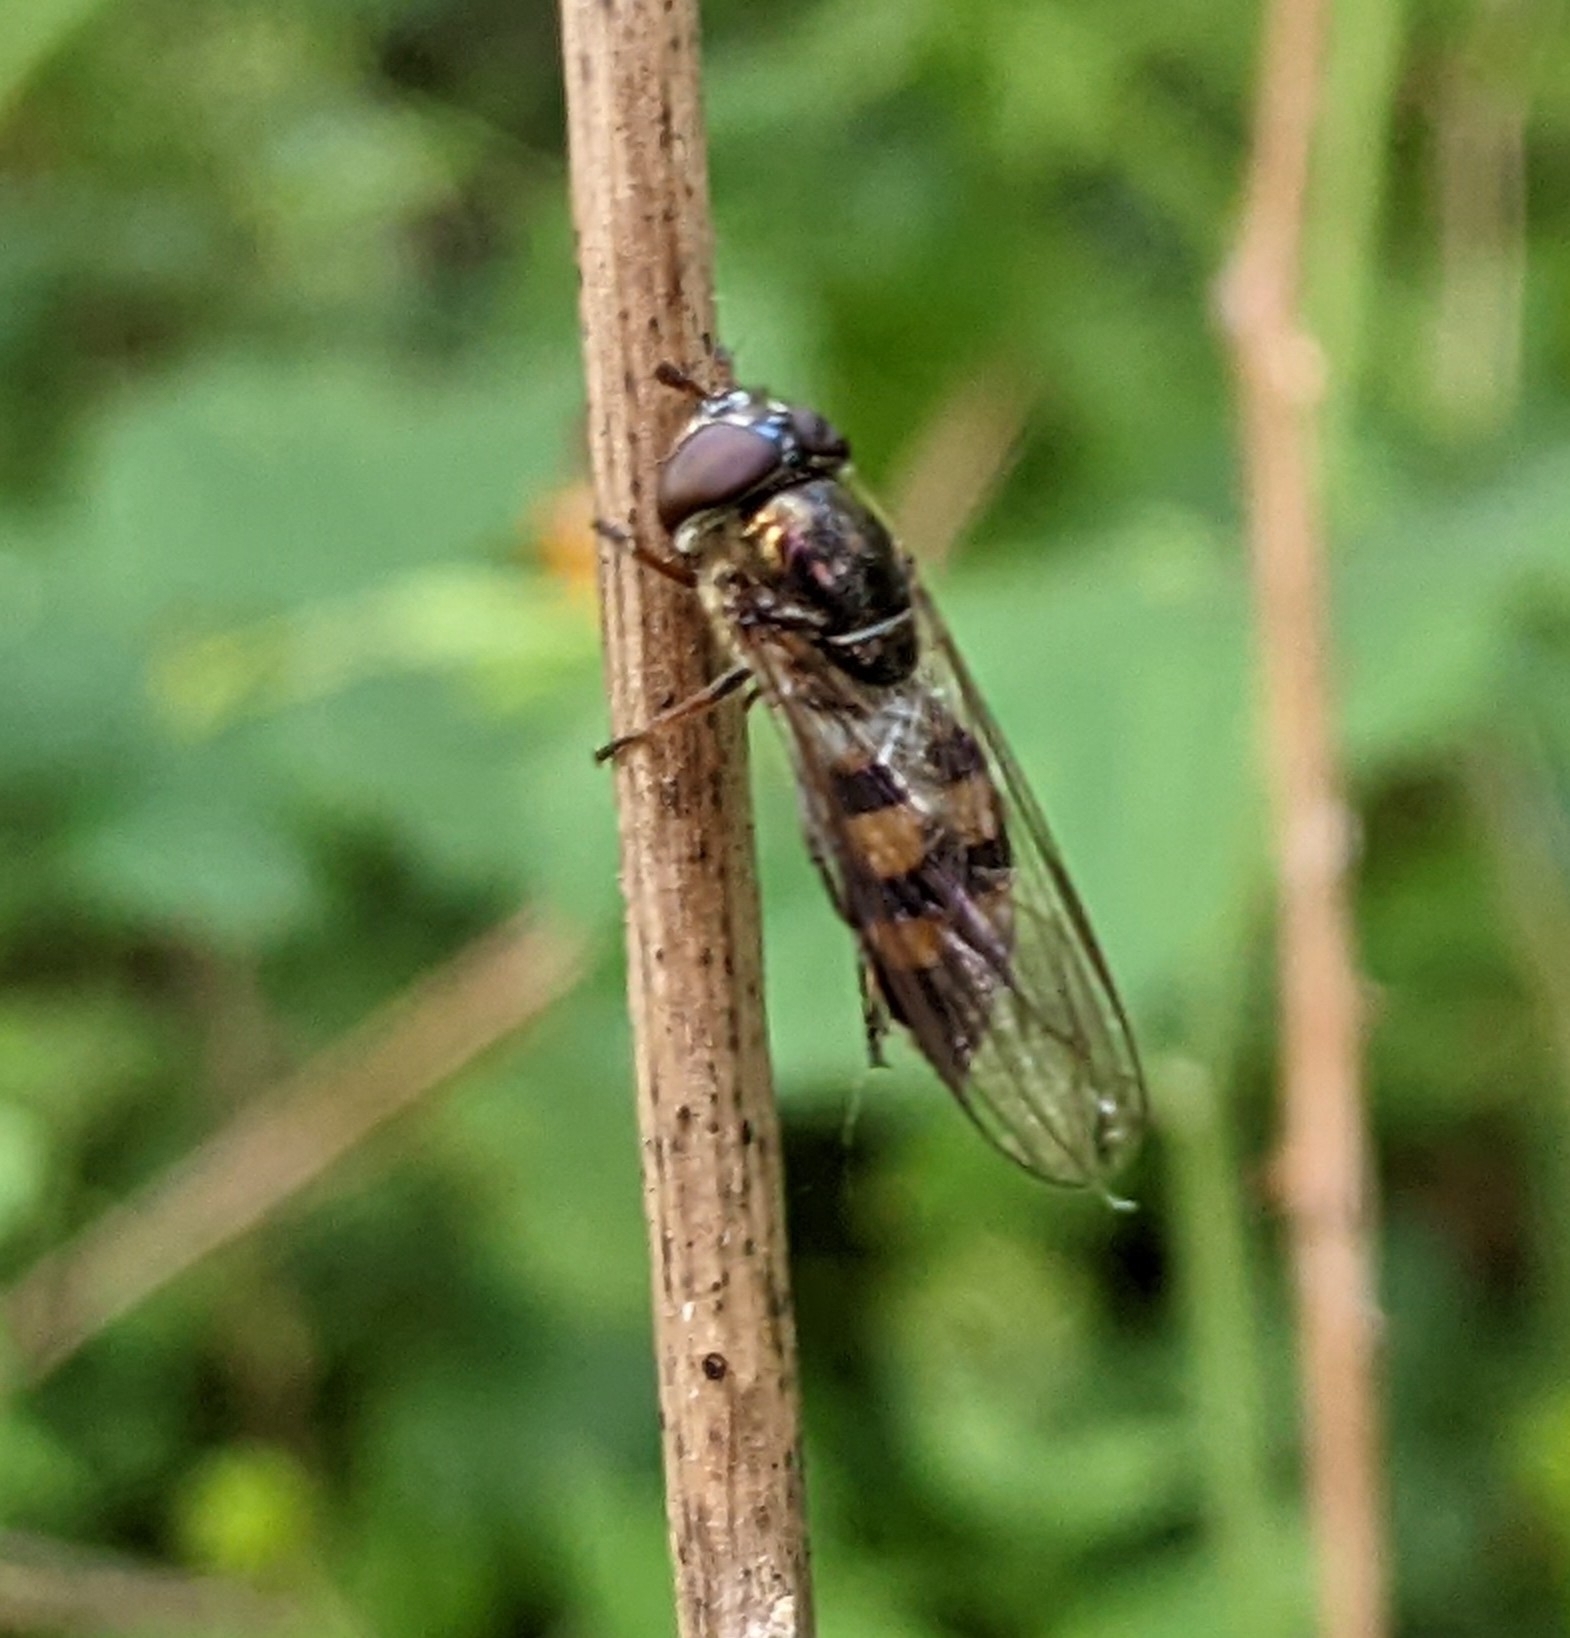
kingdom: Animalia
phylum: Arthropoda
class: Insecta
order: Diptera
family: Syrphidae
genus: Xanthandrus
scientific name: Xanthandrus comtus
